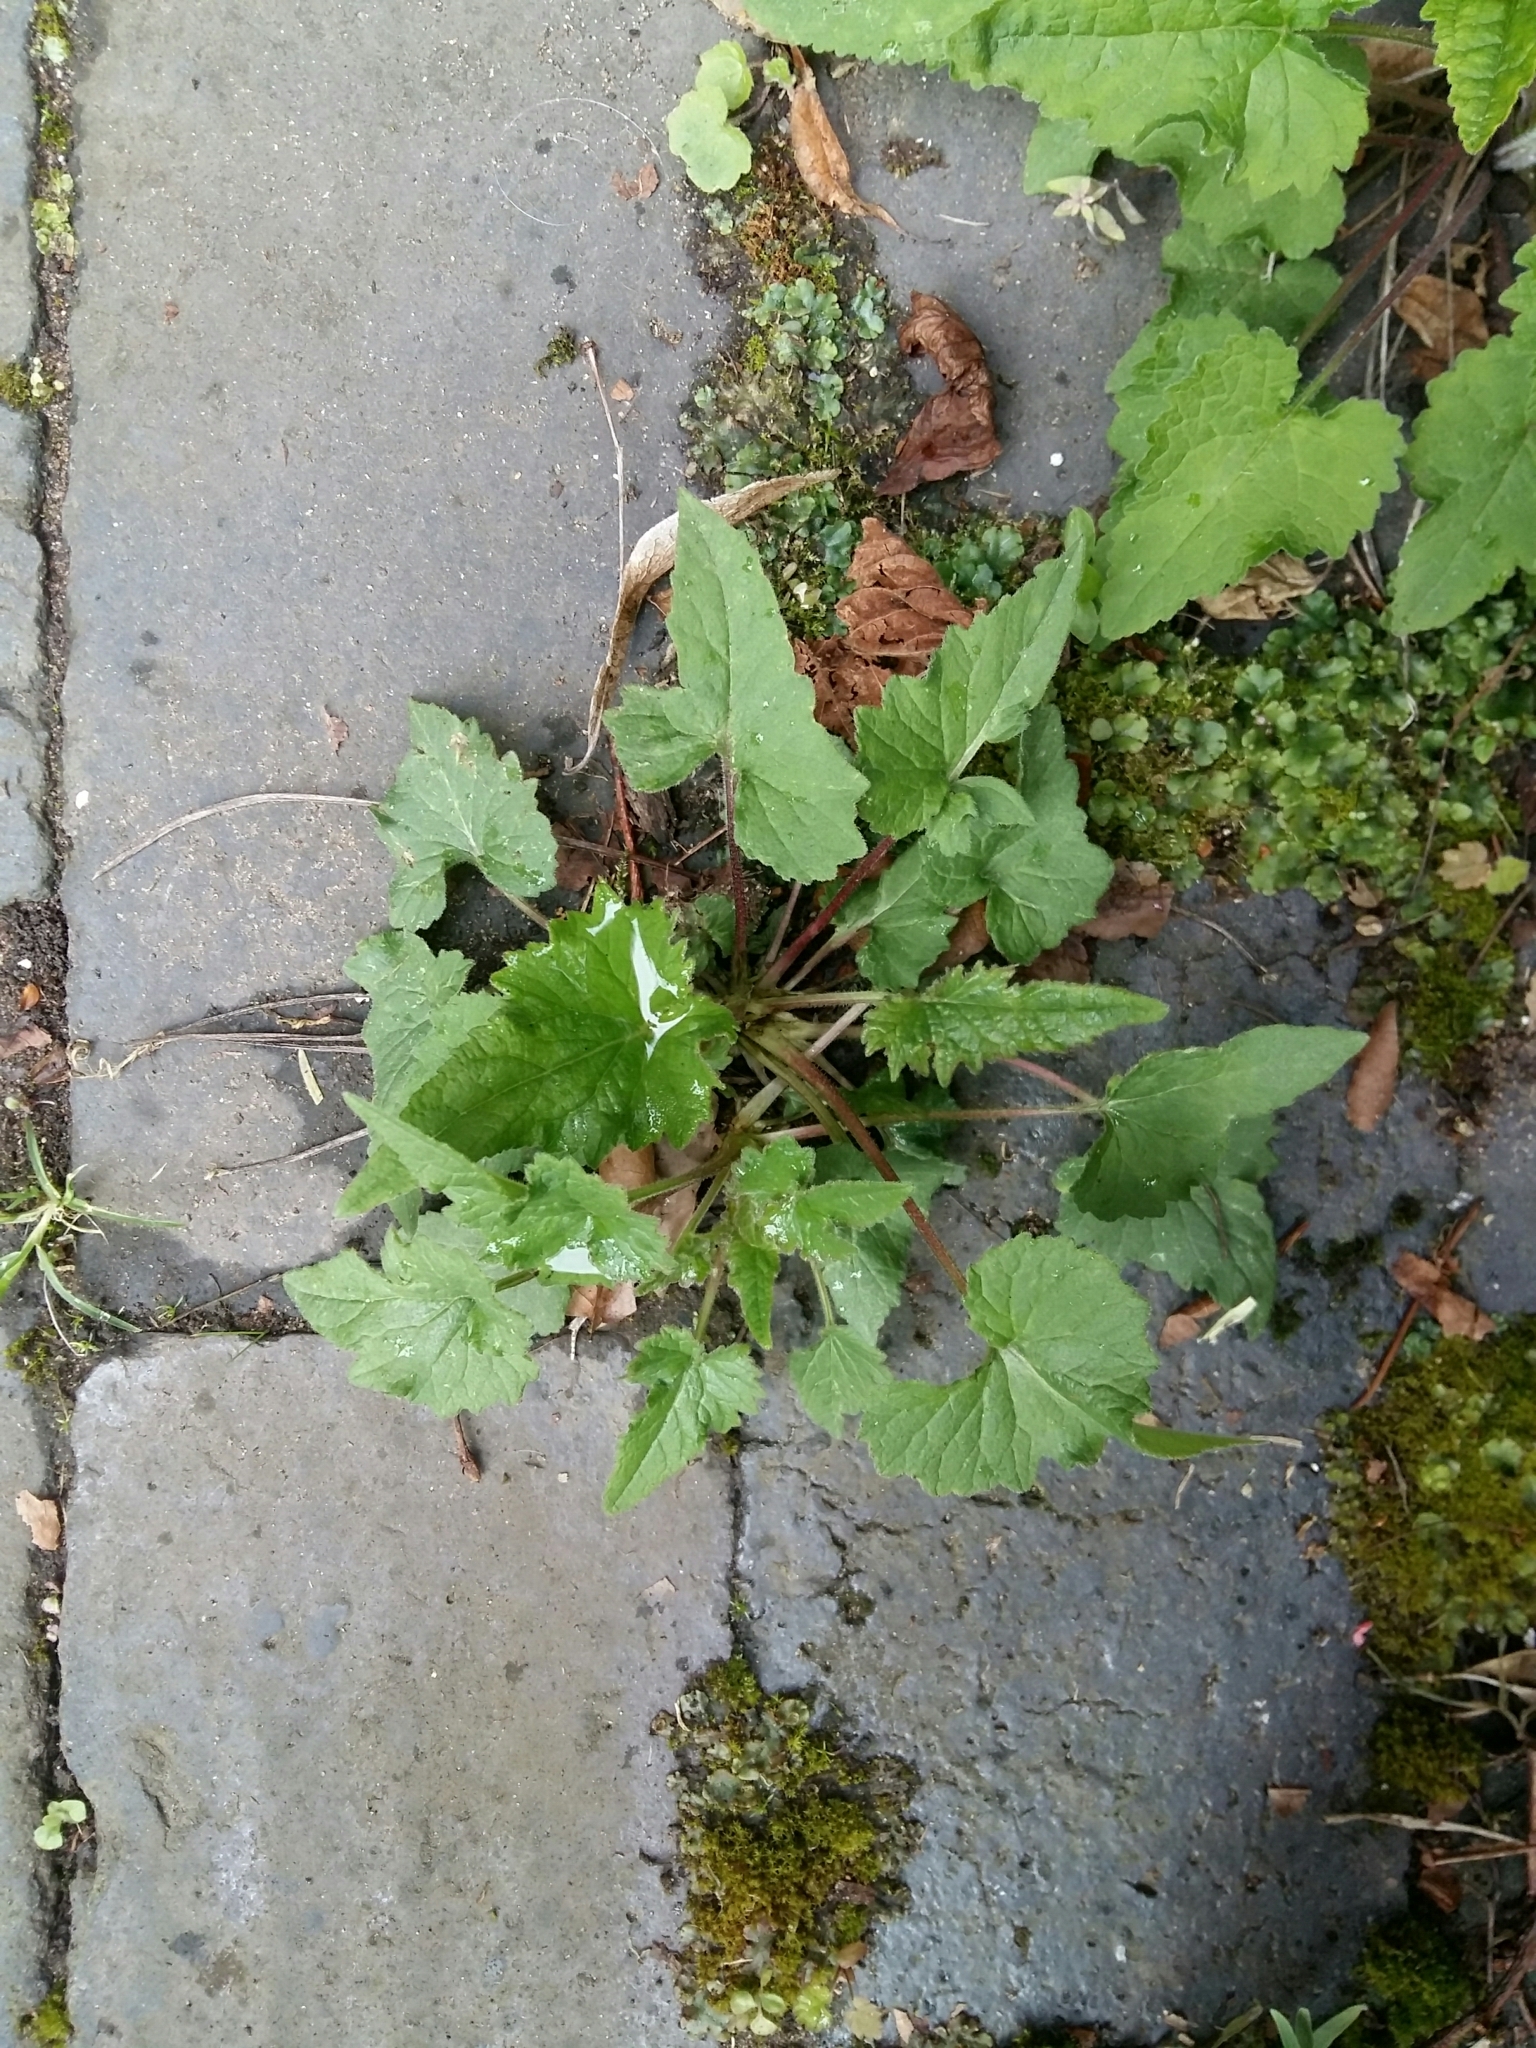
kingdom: Plantae
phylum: Tracheophyta
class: Magnoliopsida
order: Asterales
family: Campanulaceae
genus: Campanula
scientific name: Campanula trachelium
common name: Nettle-leaved bellflower
